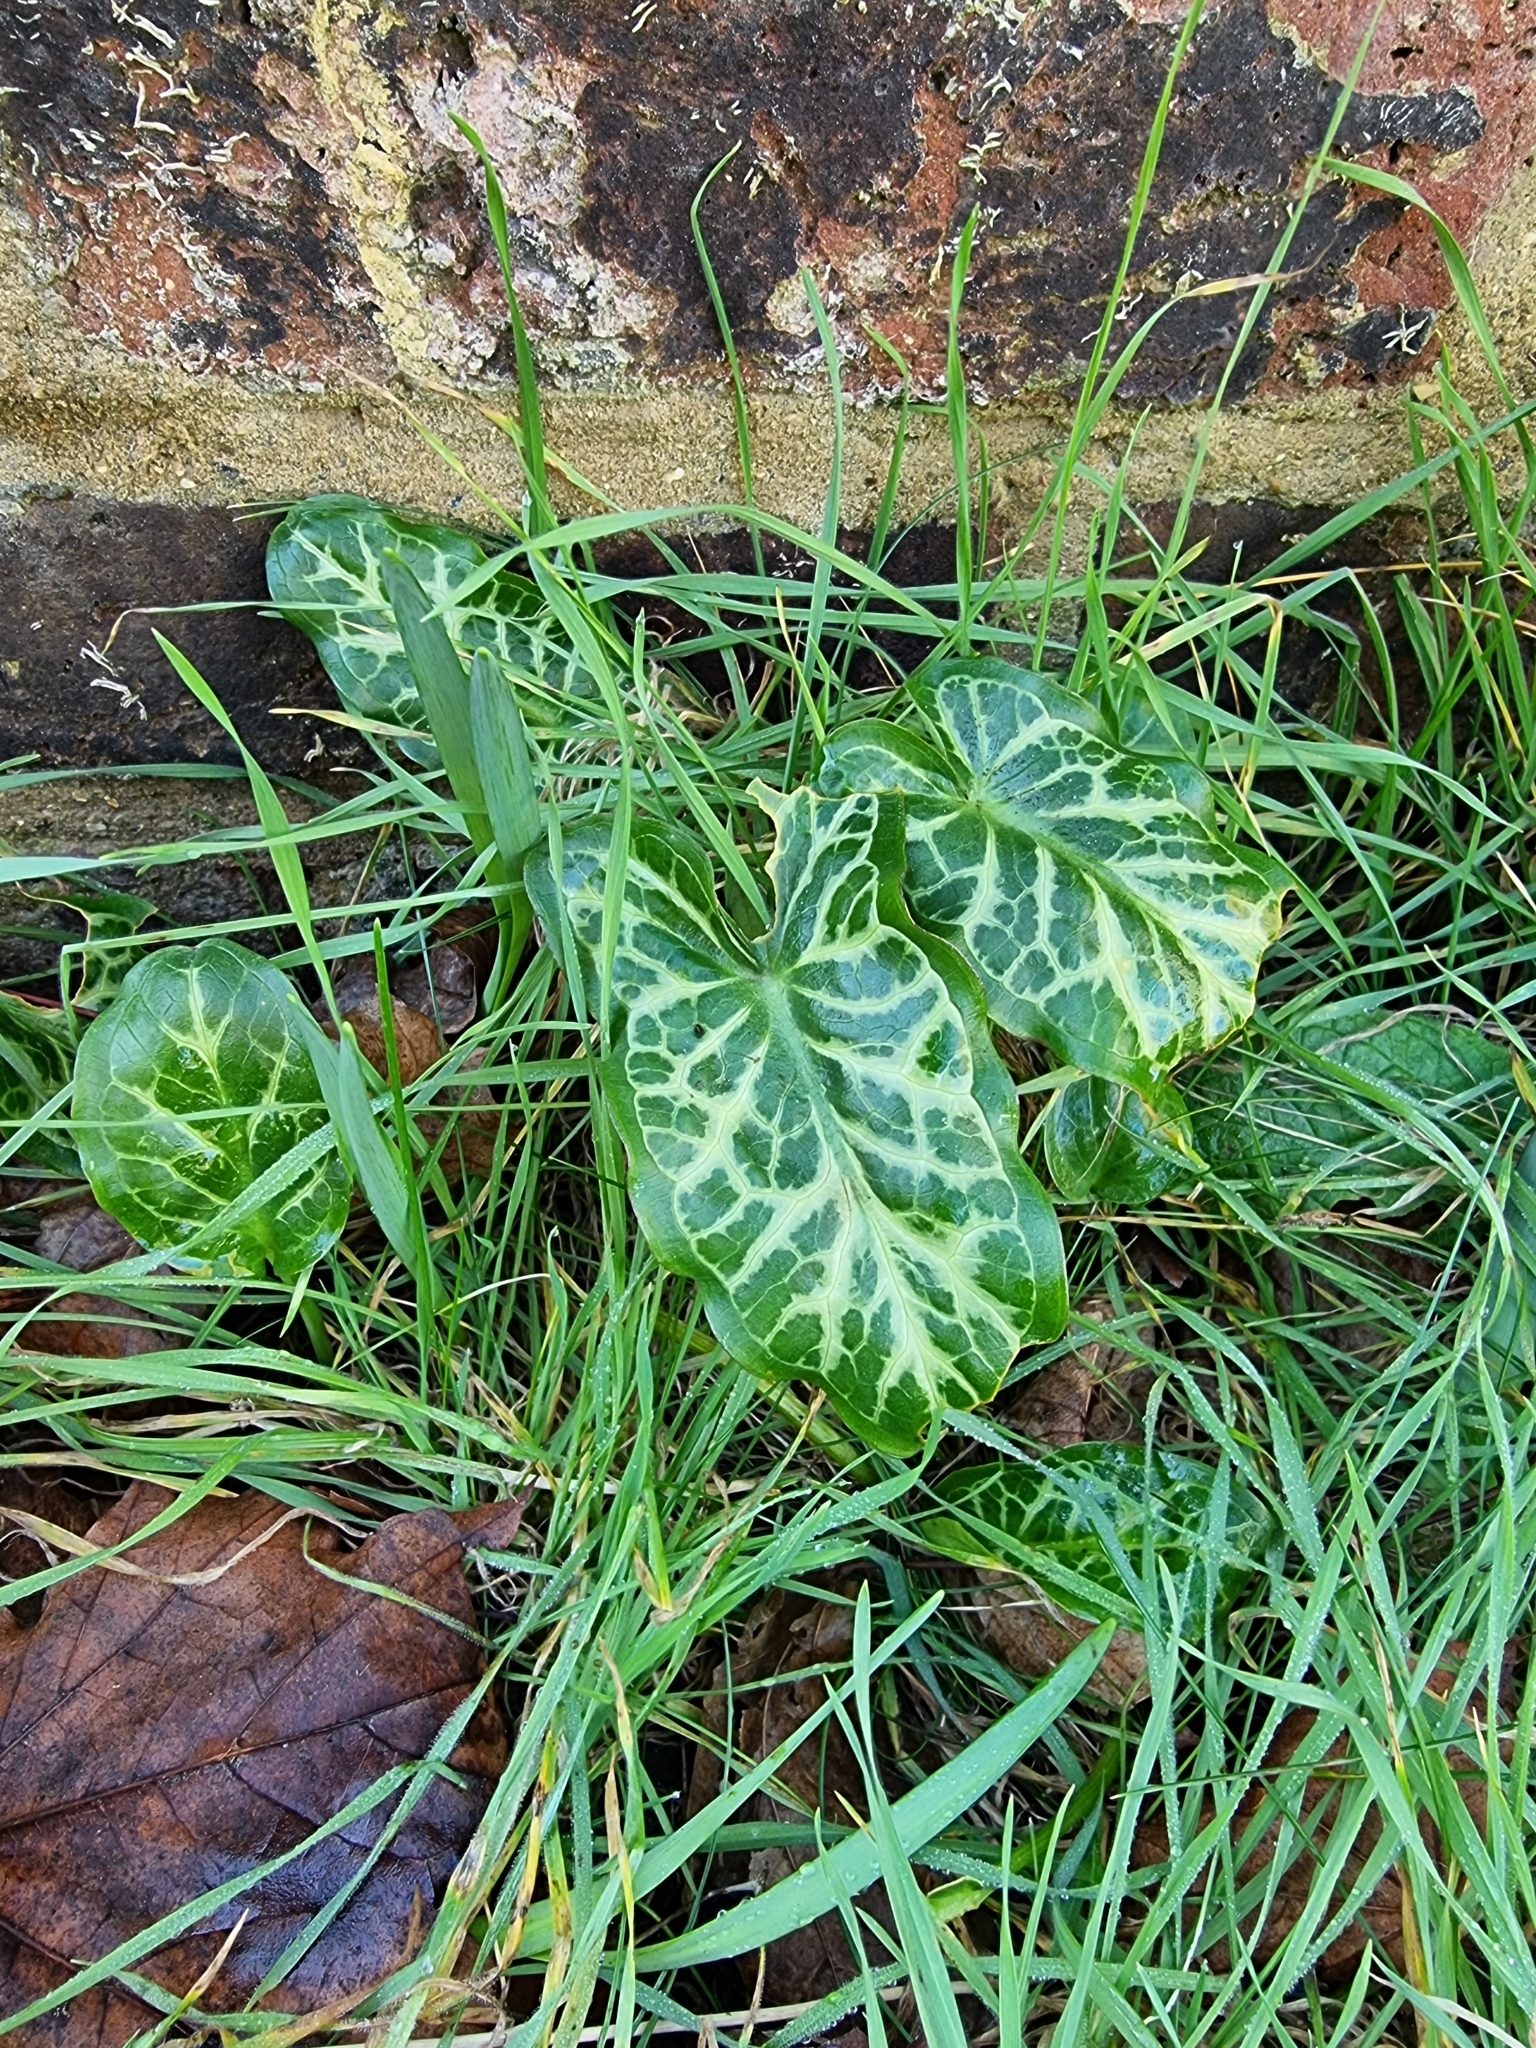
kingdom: Plantae
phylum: Tracheophyta
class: Liliopsida
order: Alismatales
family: Araceae
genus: Arum
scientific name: Arum italicum
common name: Italian lords-and-ladies
